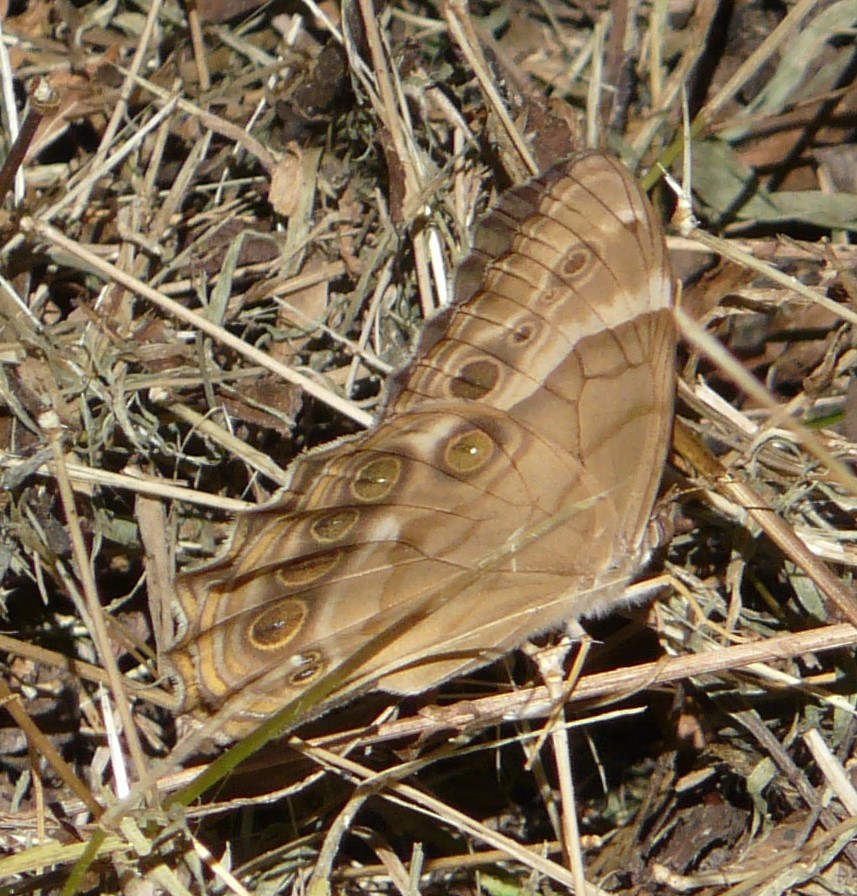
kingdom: Animalia
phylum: Arthropoda
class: Insecta
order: Lepidoptera
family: Nymphalidae
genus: Enodia
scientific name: Enodia portlandia
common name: Southern pearly-eye
